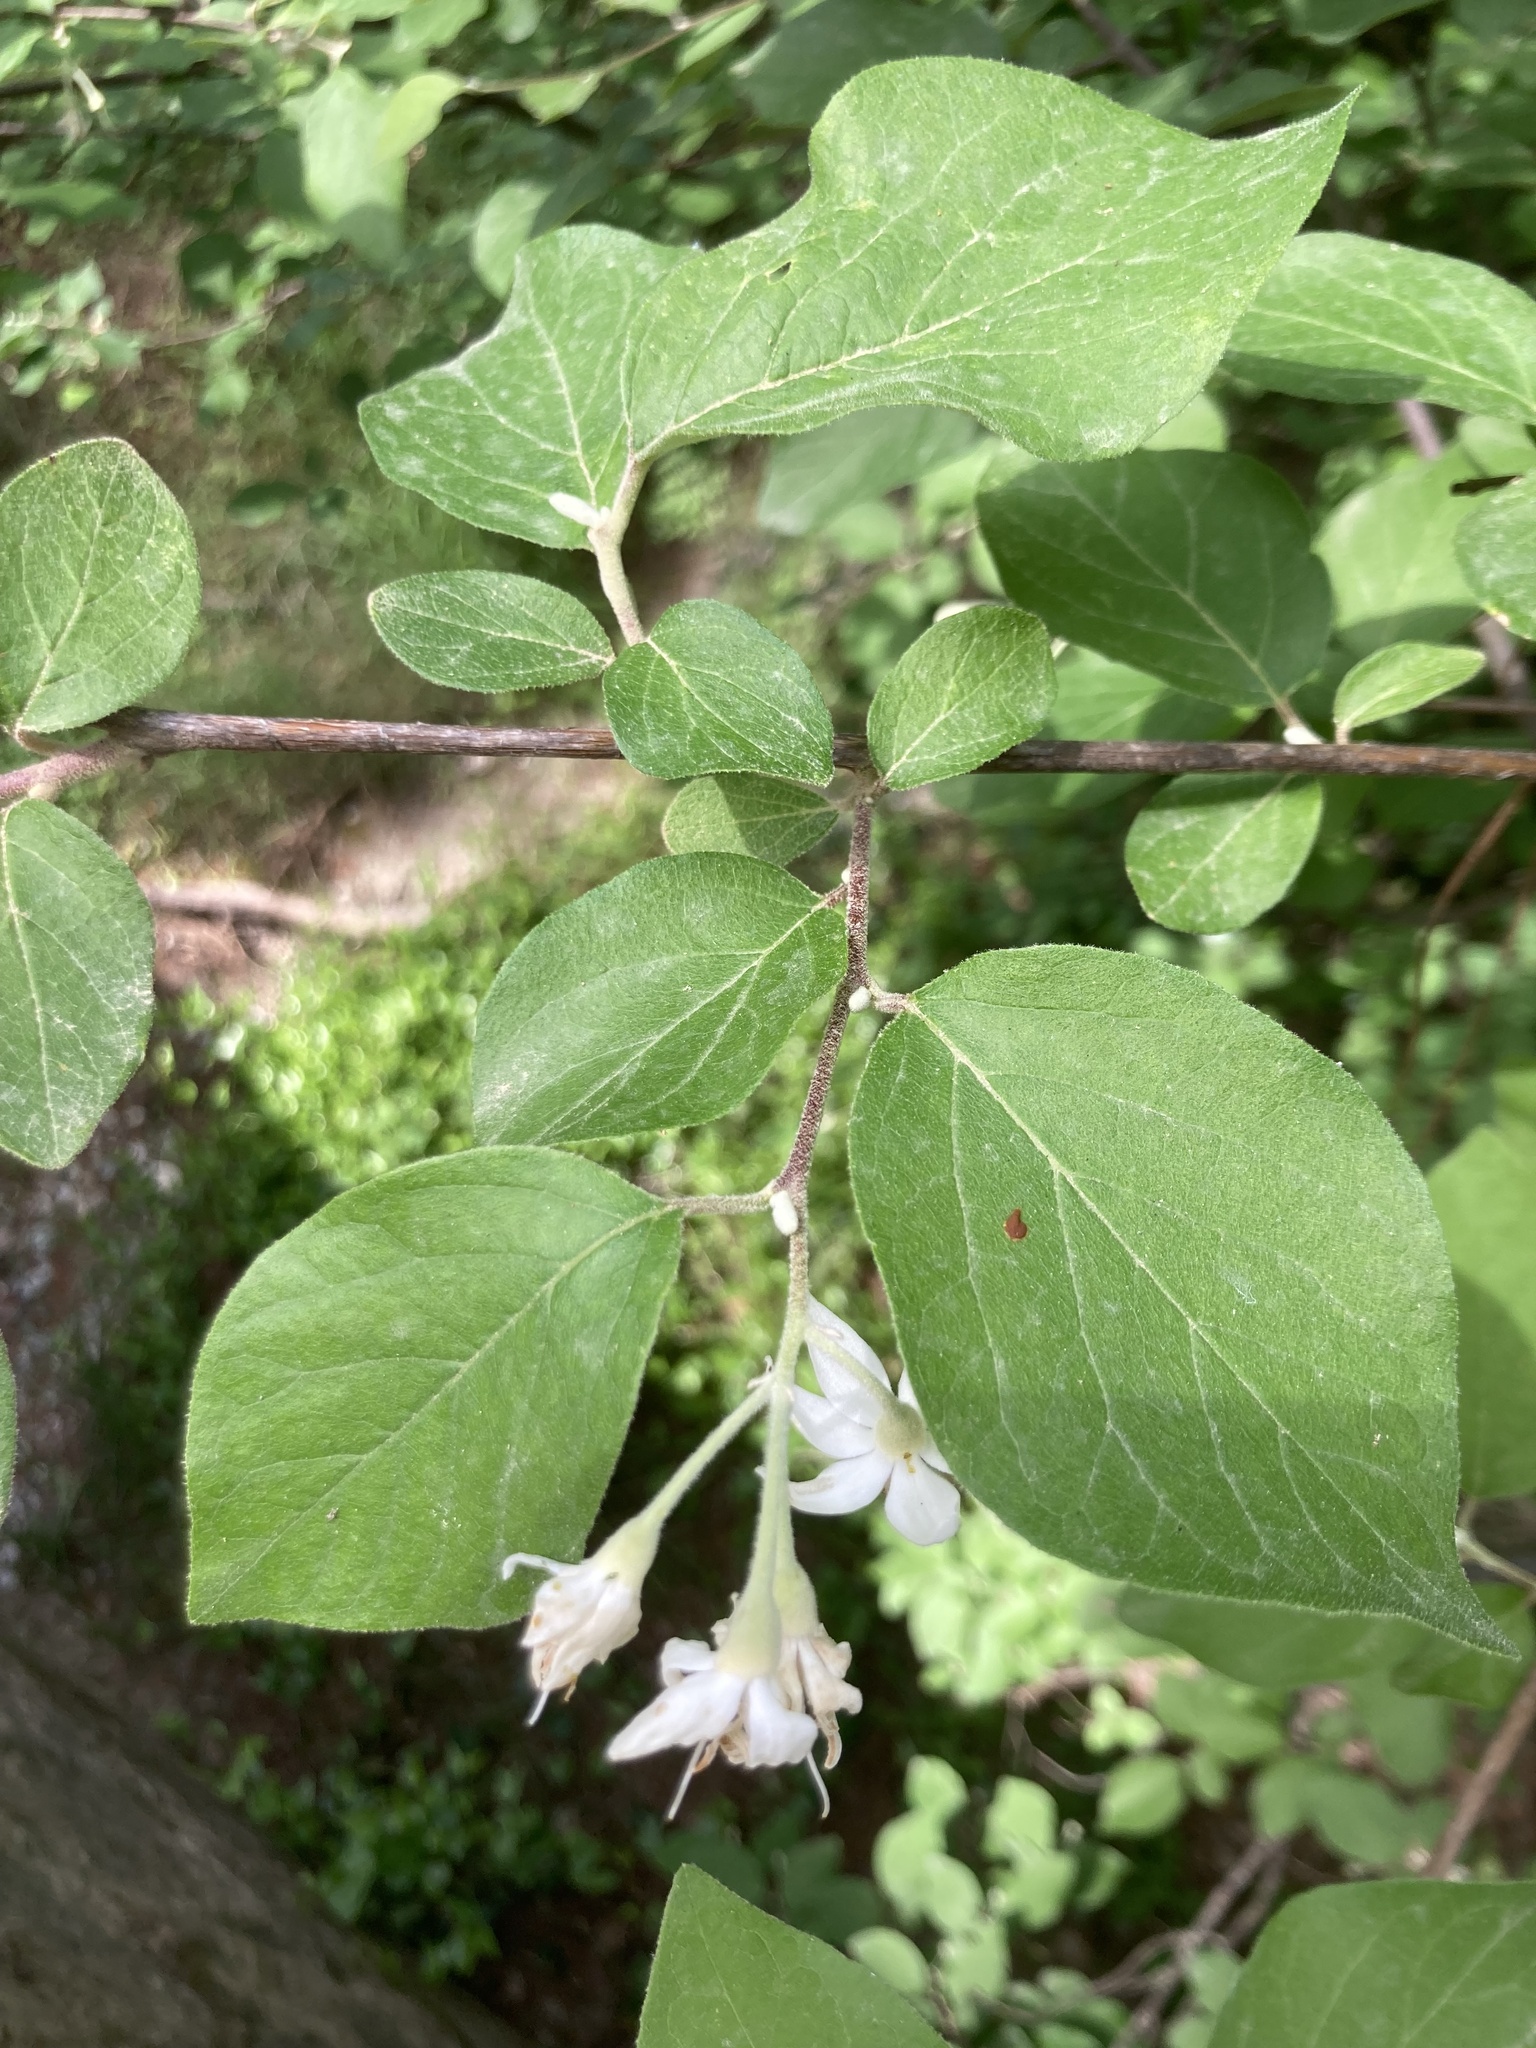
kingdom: Plantae
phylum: Tracheophyta
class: Magnoliopsida
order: Ericales
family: Styracaceae
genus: Styrax
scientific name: Styrax officinalis
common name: Storax
